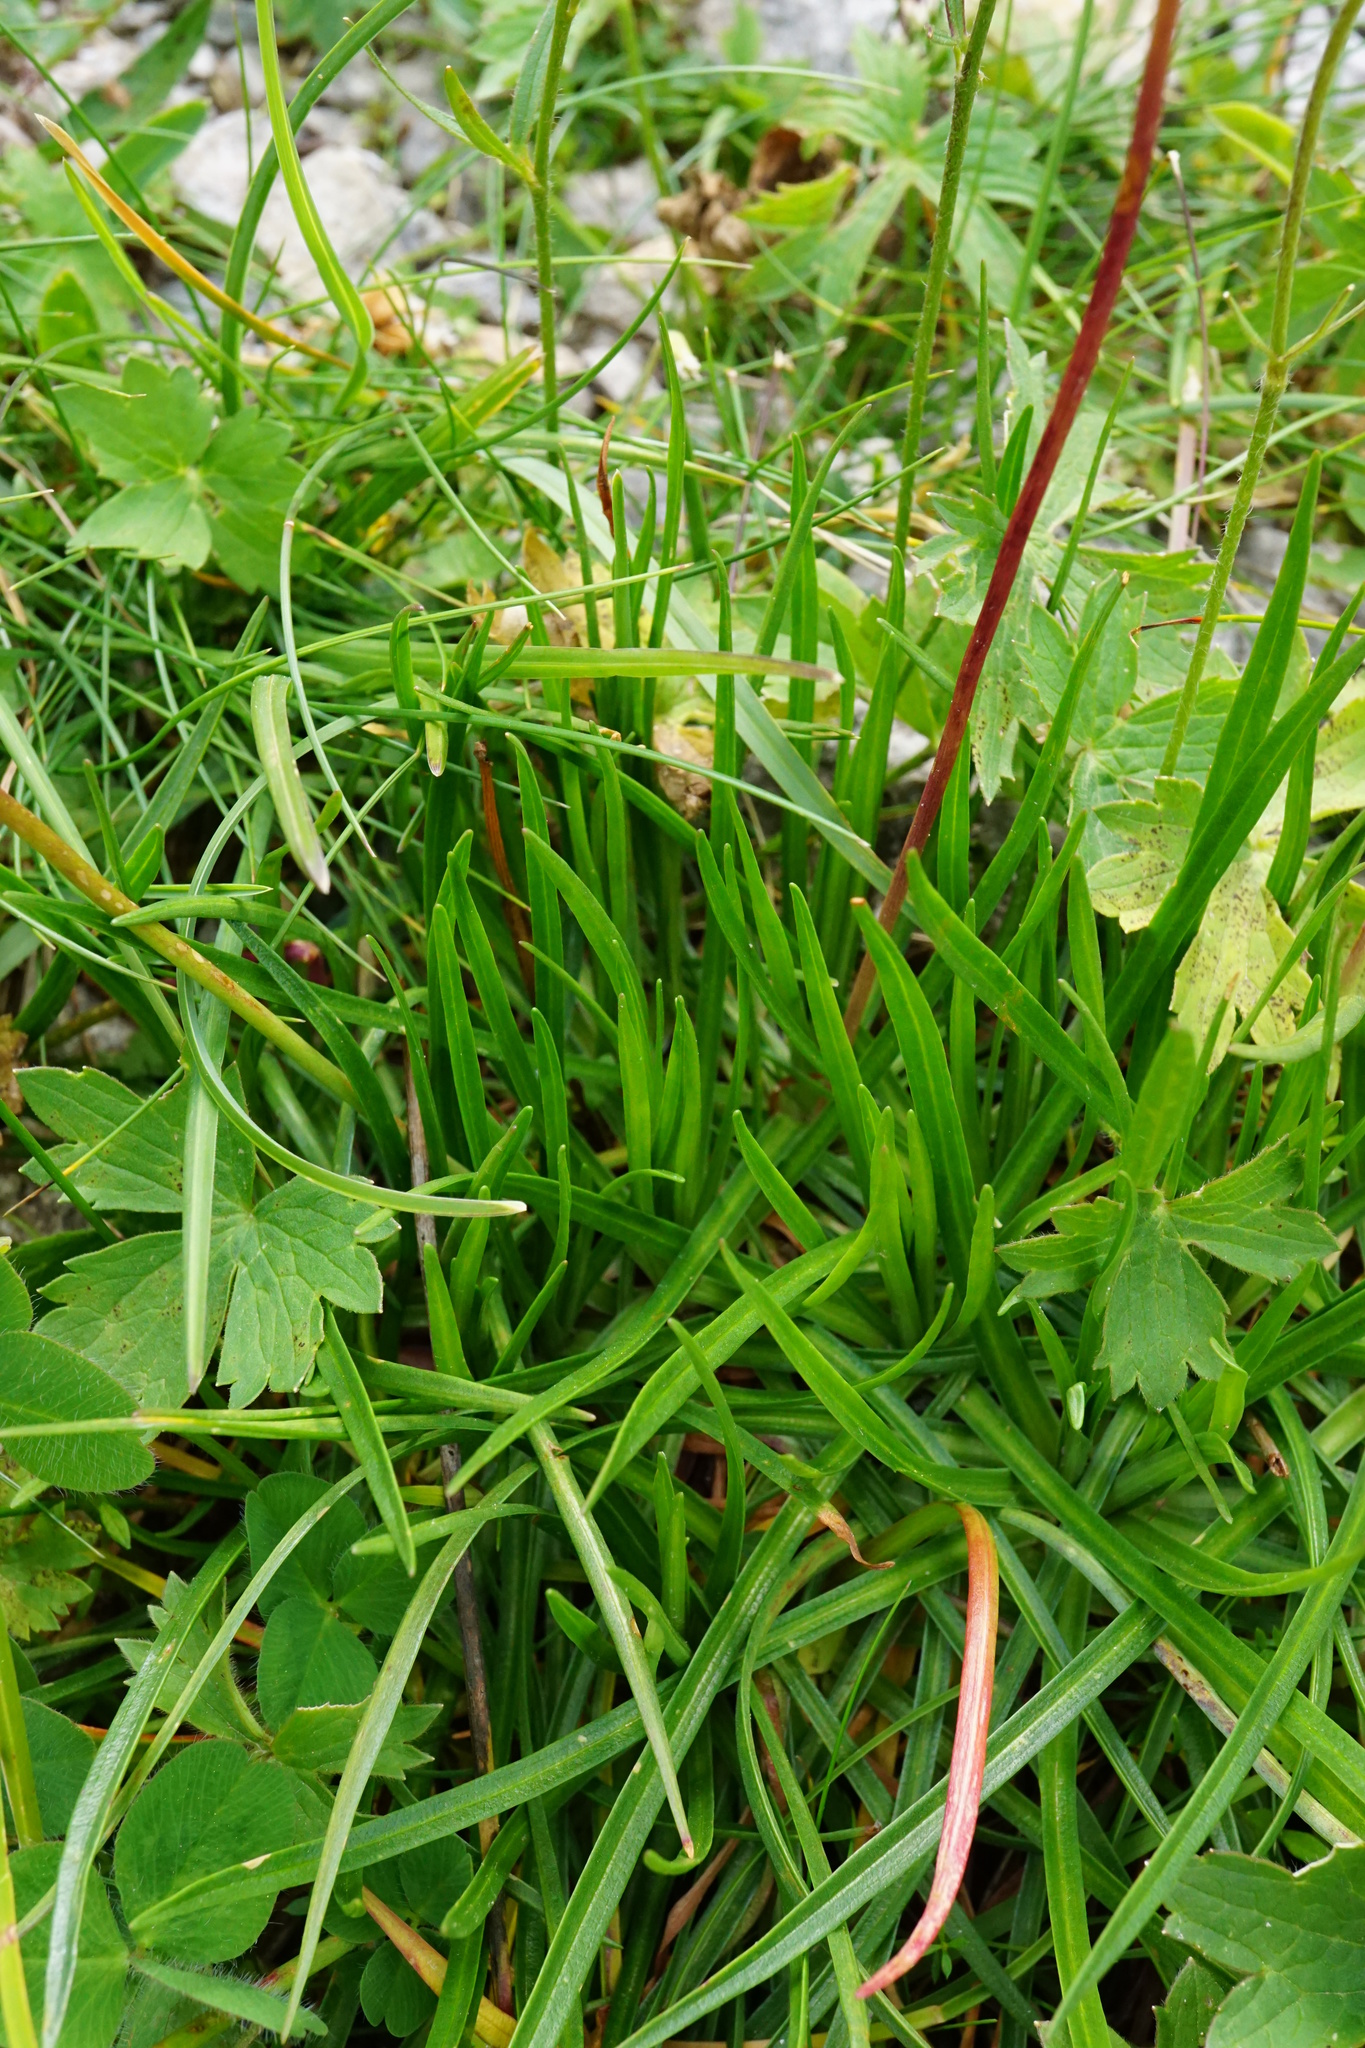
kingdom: Plantae
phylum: Tracheophyta
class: Magnoliopsida
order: Caryophyllales
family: Plumbaginaceae
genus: Armeria
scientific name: Armeria alpina
